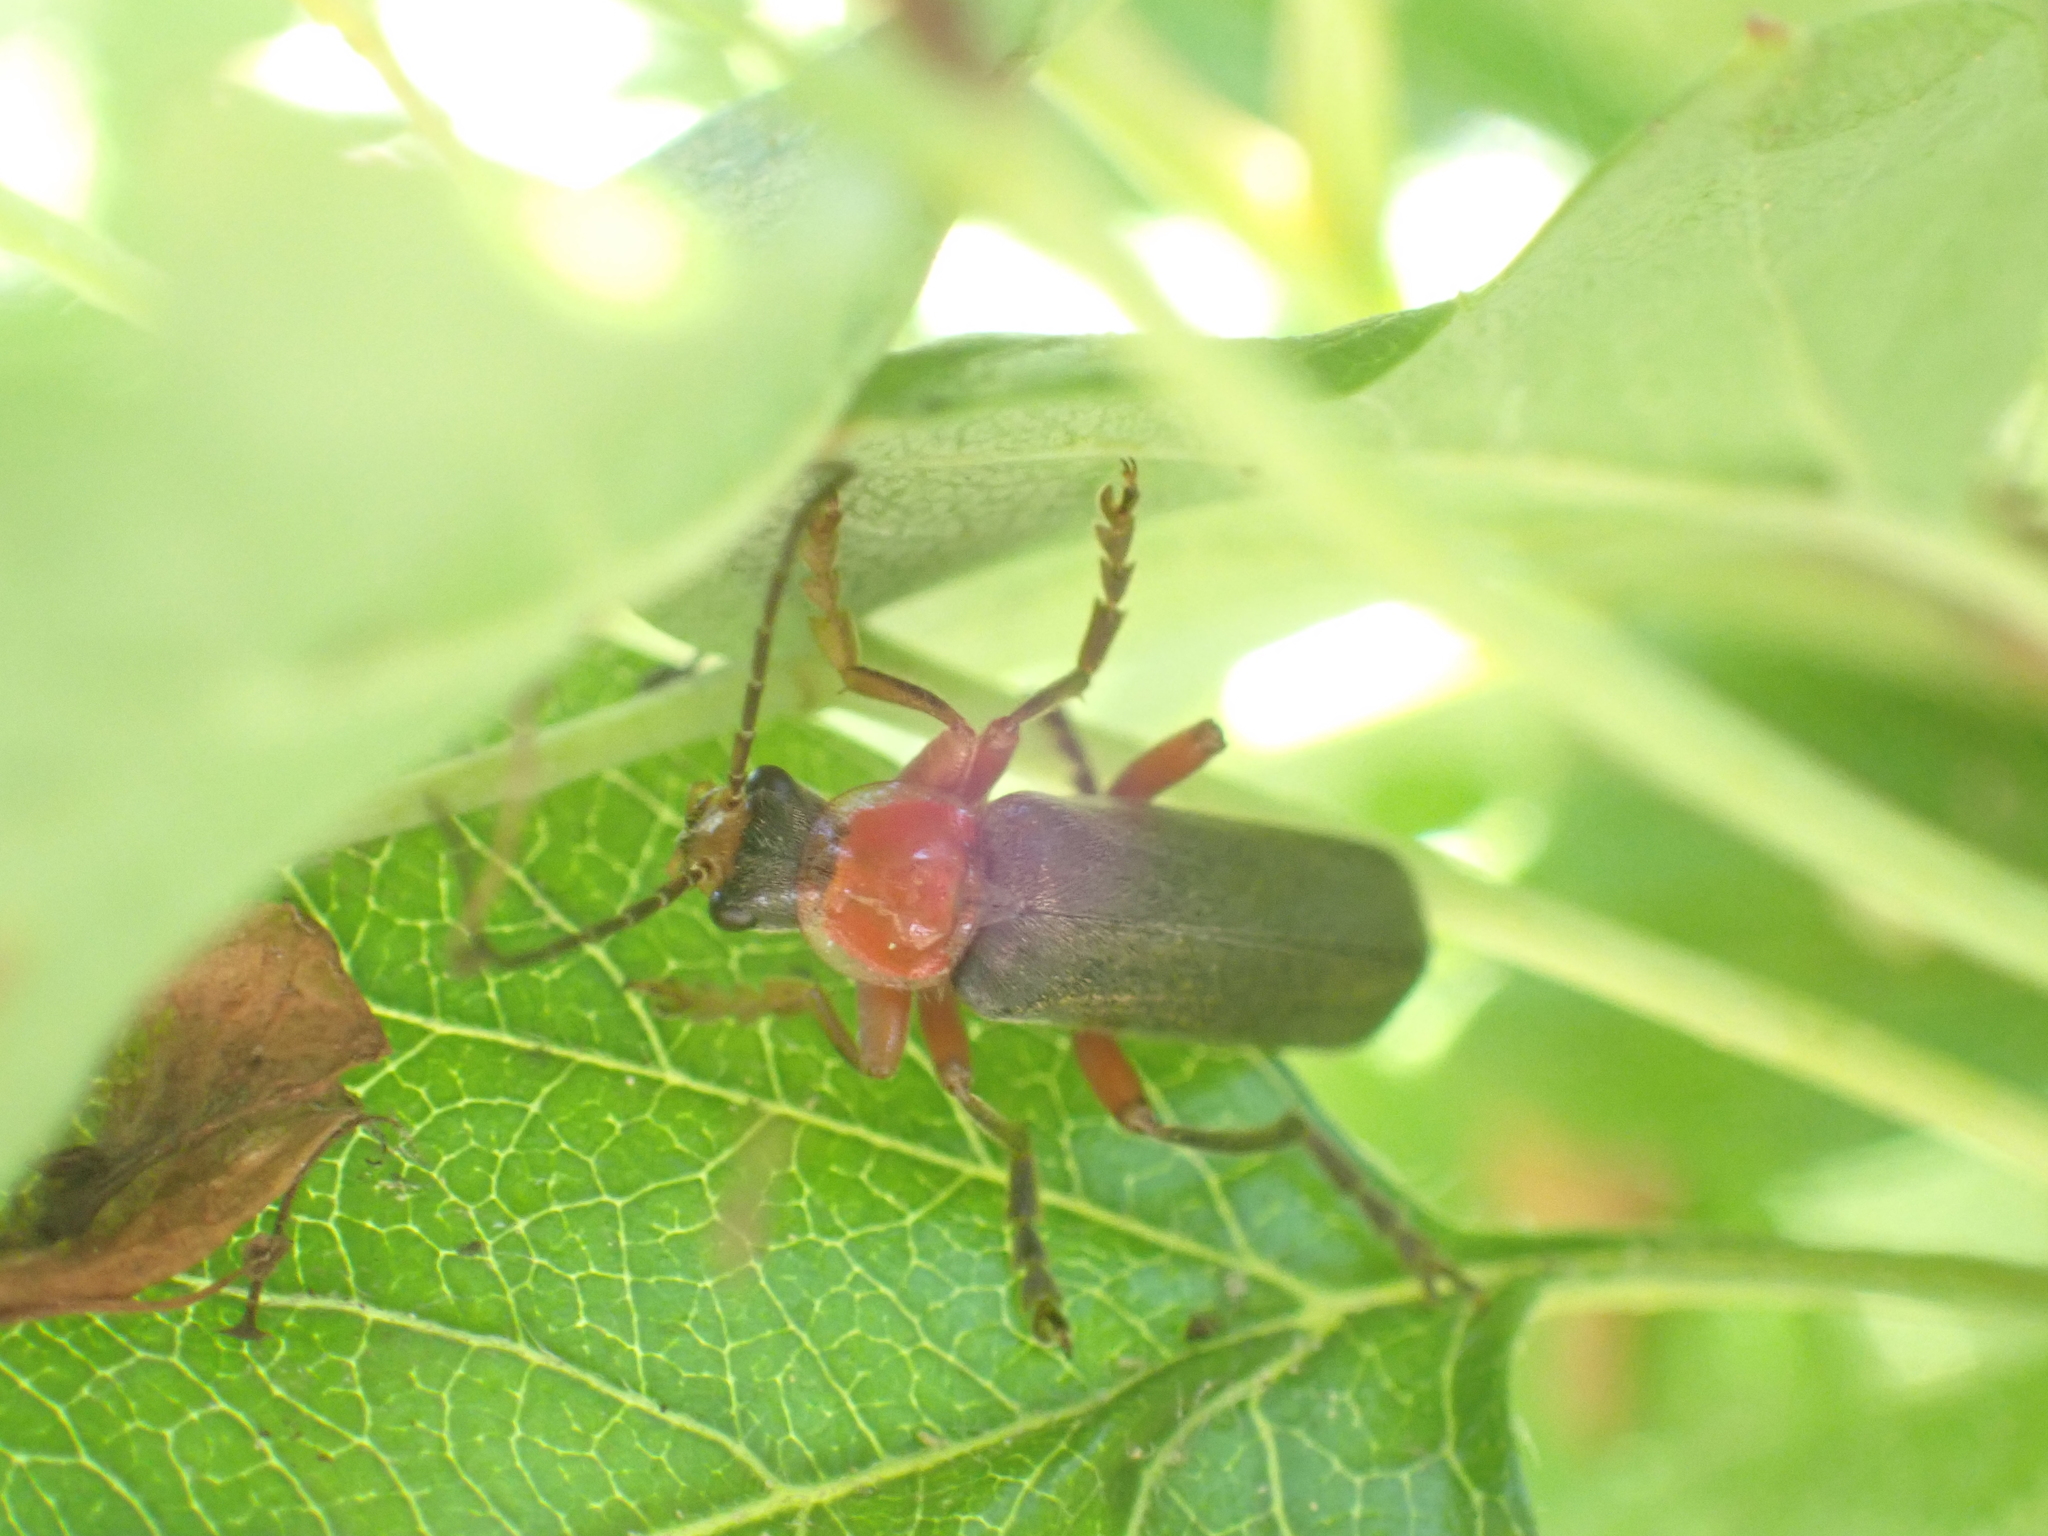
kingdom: Animalia
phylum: Arthropoda
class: Insecta
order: Coleoptera
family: Cantharidae
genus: Cantharis
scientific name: Cantharis pellucida
